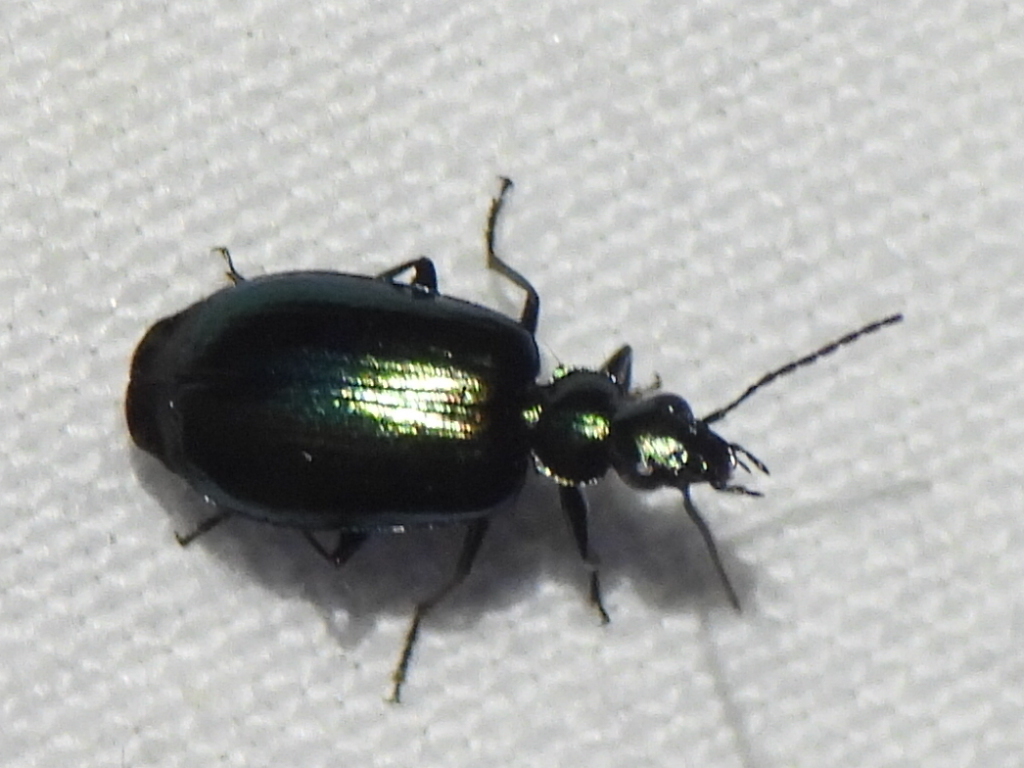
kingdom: Animalia
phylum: Arthropoda
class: Insecta
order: Coleoptera
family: Carabidae
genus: Lebia
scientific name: Lebia viridis
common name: Flower lebia beetle
